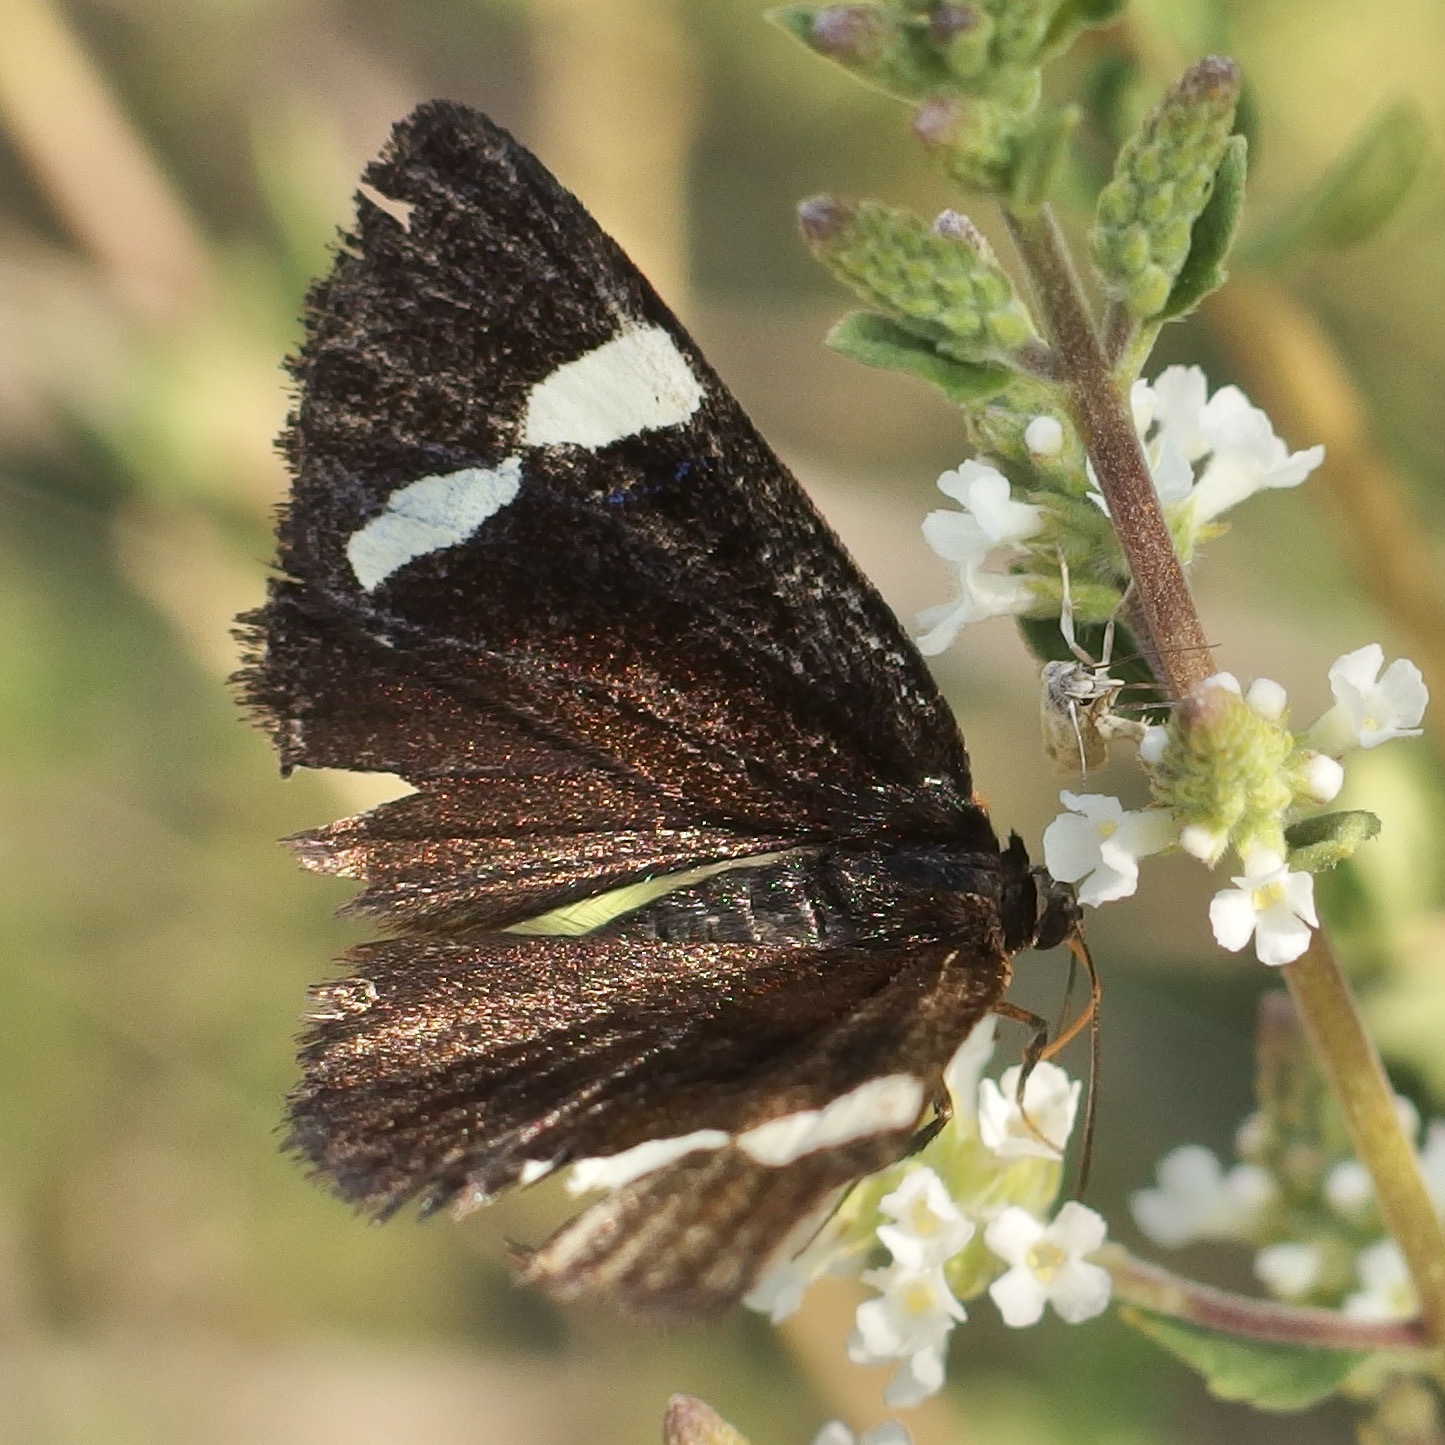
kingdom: Animalia
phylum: Arthropoda
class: Insecta
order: Lepidoptera
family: Noctuidae
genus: Alypiodes
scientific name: Alypiodes geronimo
